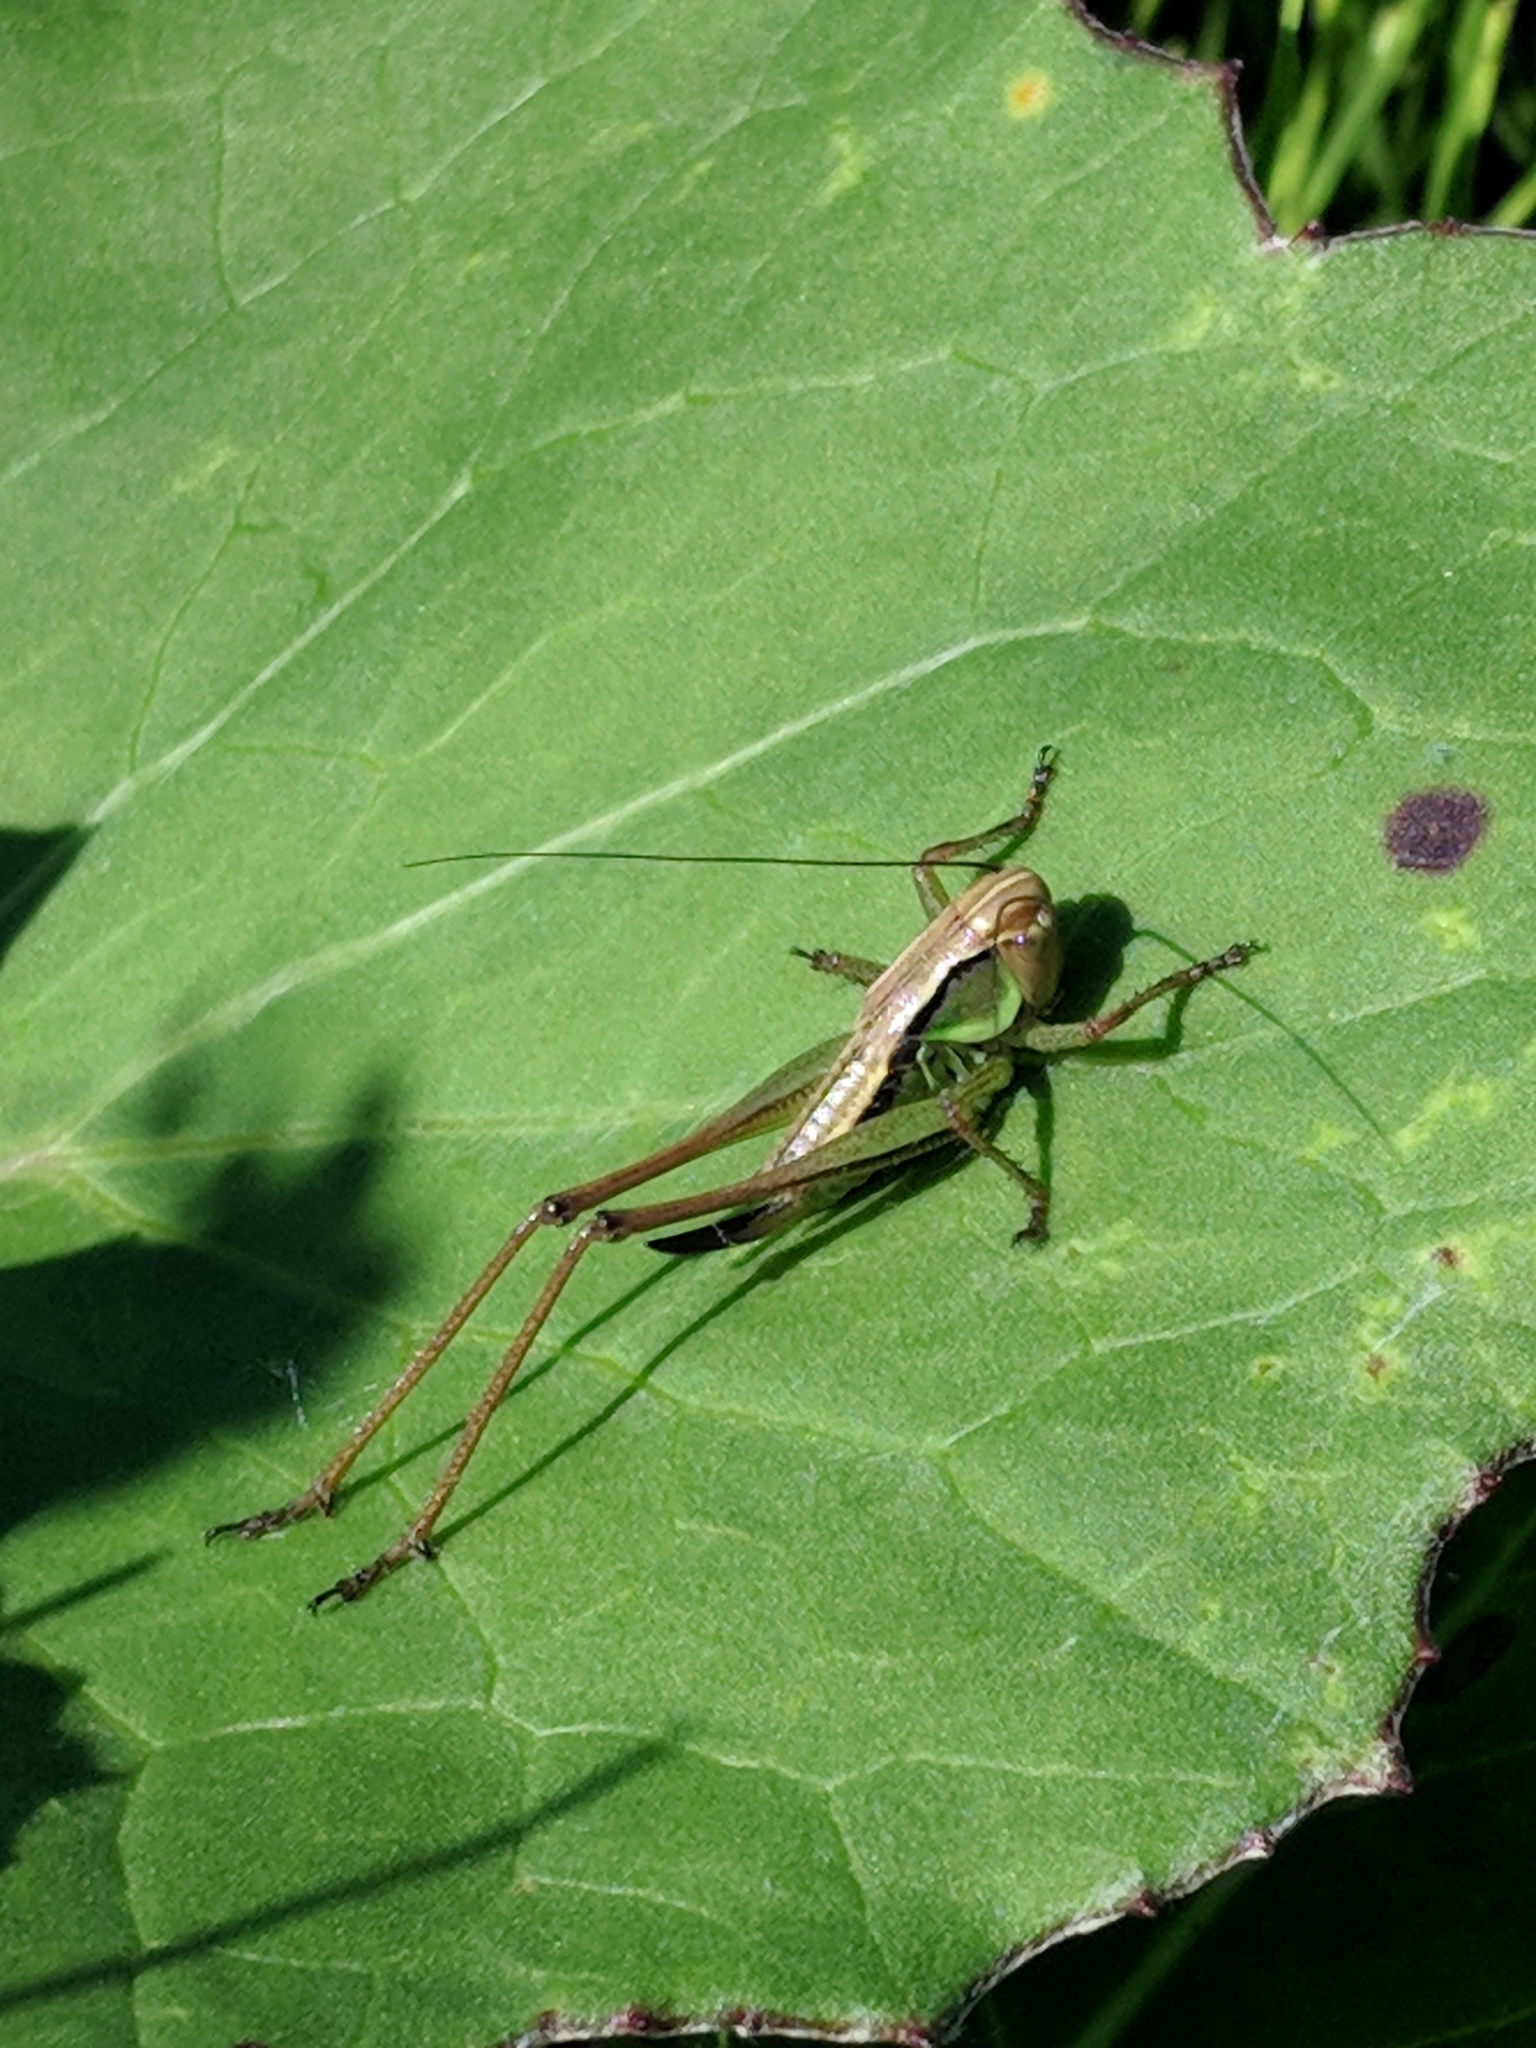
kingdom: Animalia
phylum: Arthropoda
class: Insecta
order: Orthoptera
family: Tettigoniidae
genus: Roeseliana
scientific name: Roeseliana roeselii
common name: Roesel's bush cricket
